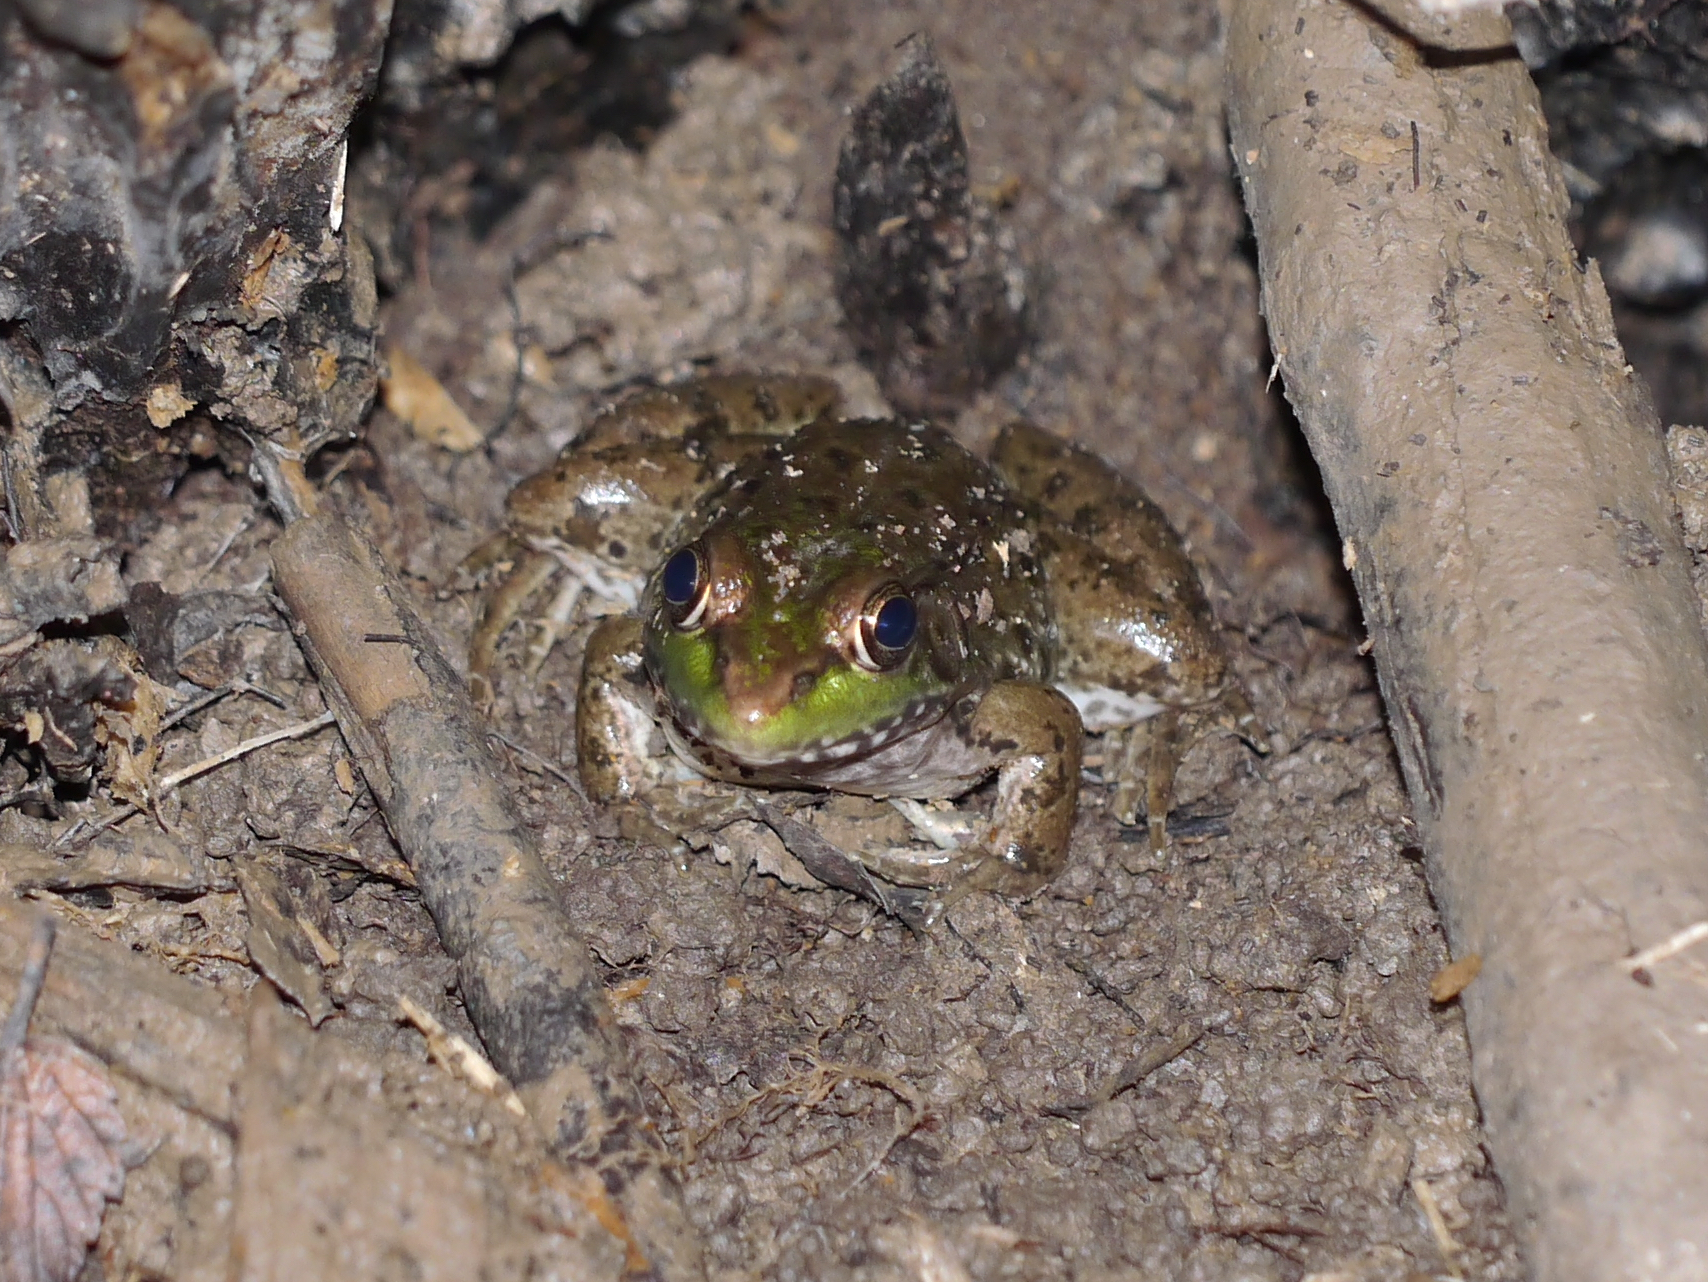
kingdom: Animalia
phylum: Chordata
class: Amphibia
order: Anura
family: Ranidae
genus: Lithobates
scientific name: Lithobates clamitans
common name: Green frog
